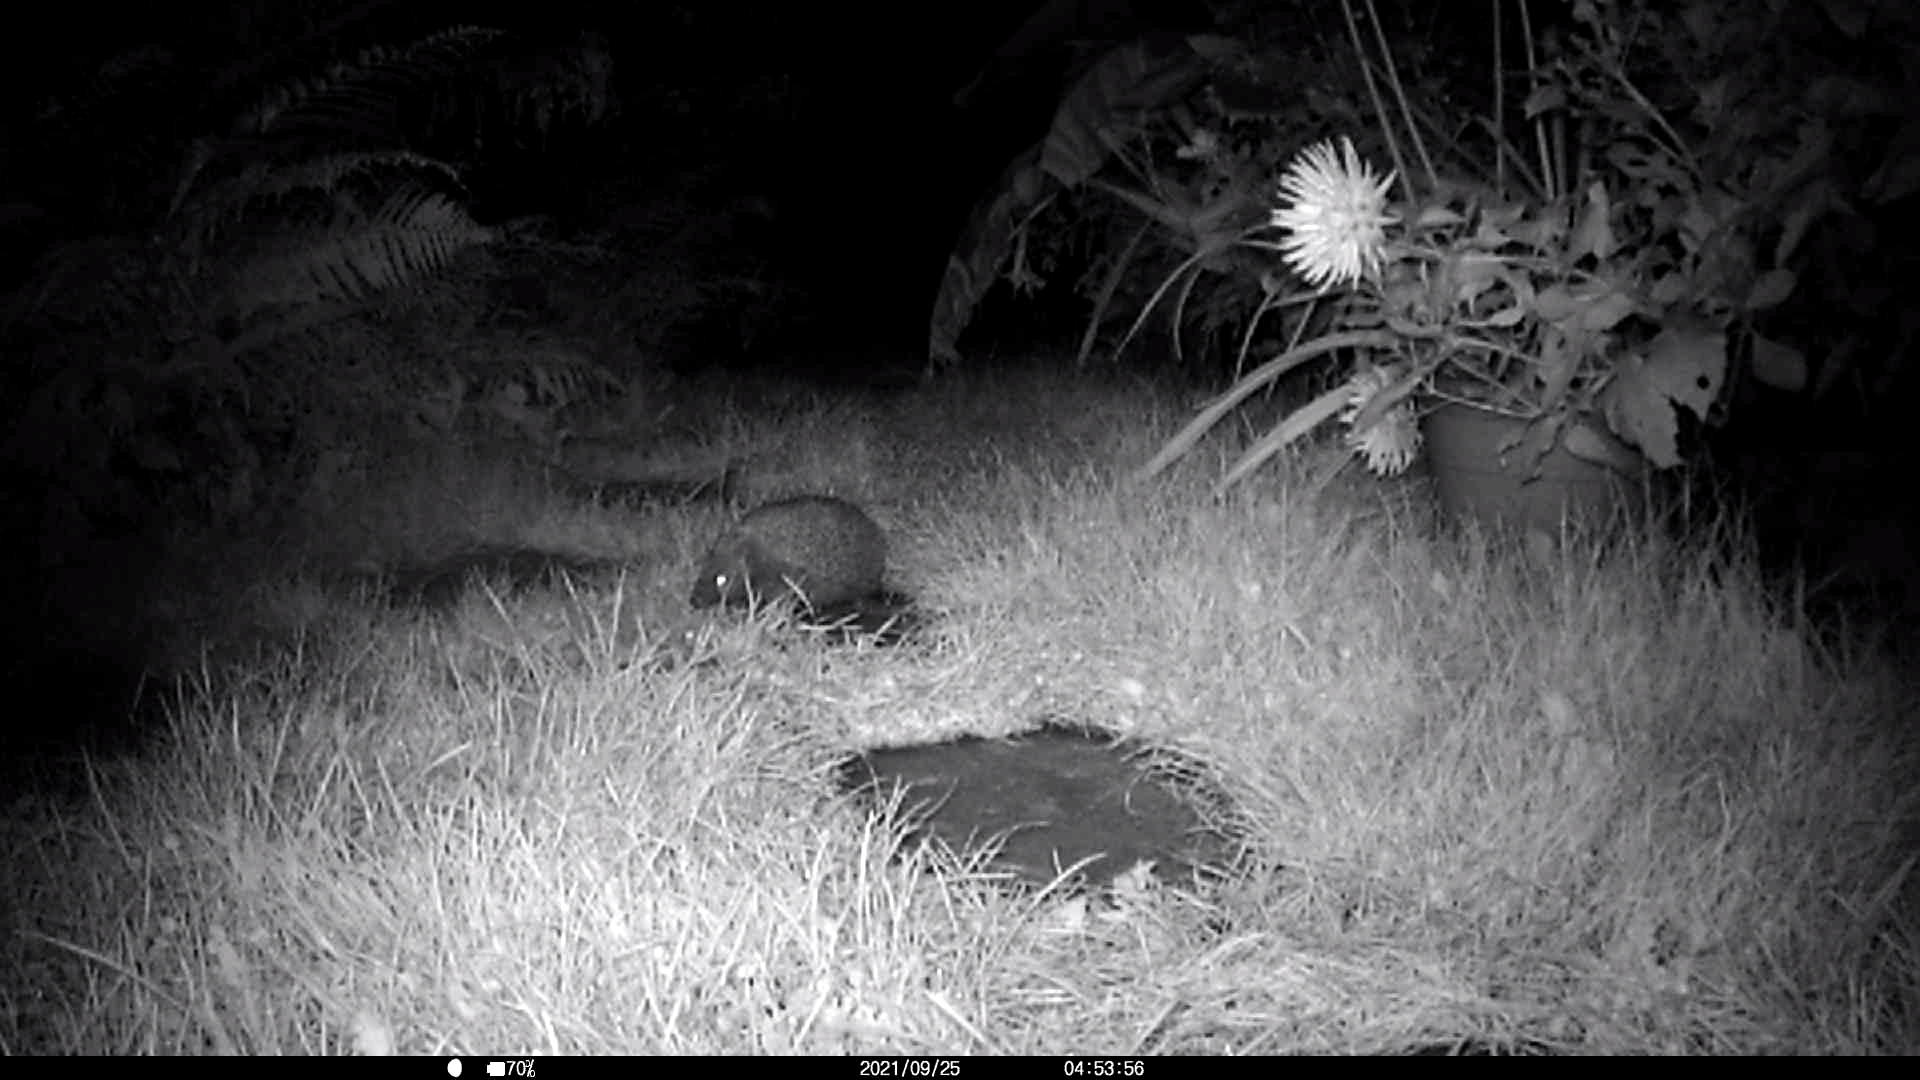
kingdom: Animalia
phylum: Chordata
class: Mammalia
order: Erinaceomorpha
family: Erinaceidae
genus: Erinaceus
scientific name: Erinaceus europaeus
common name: West european hedgehog
